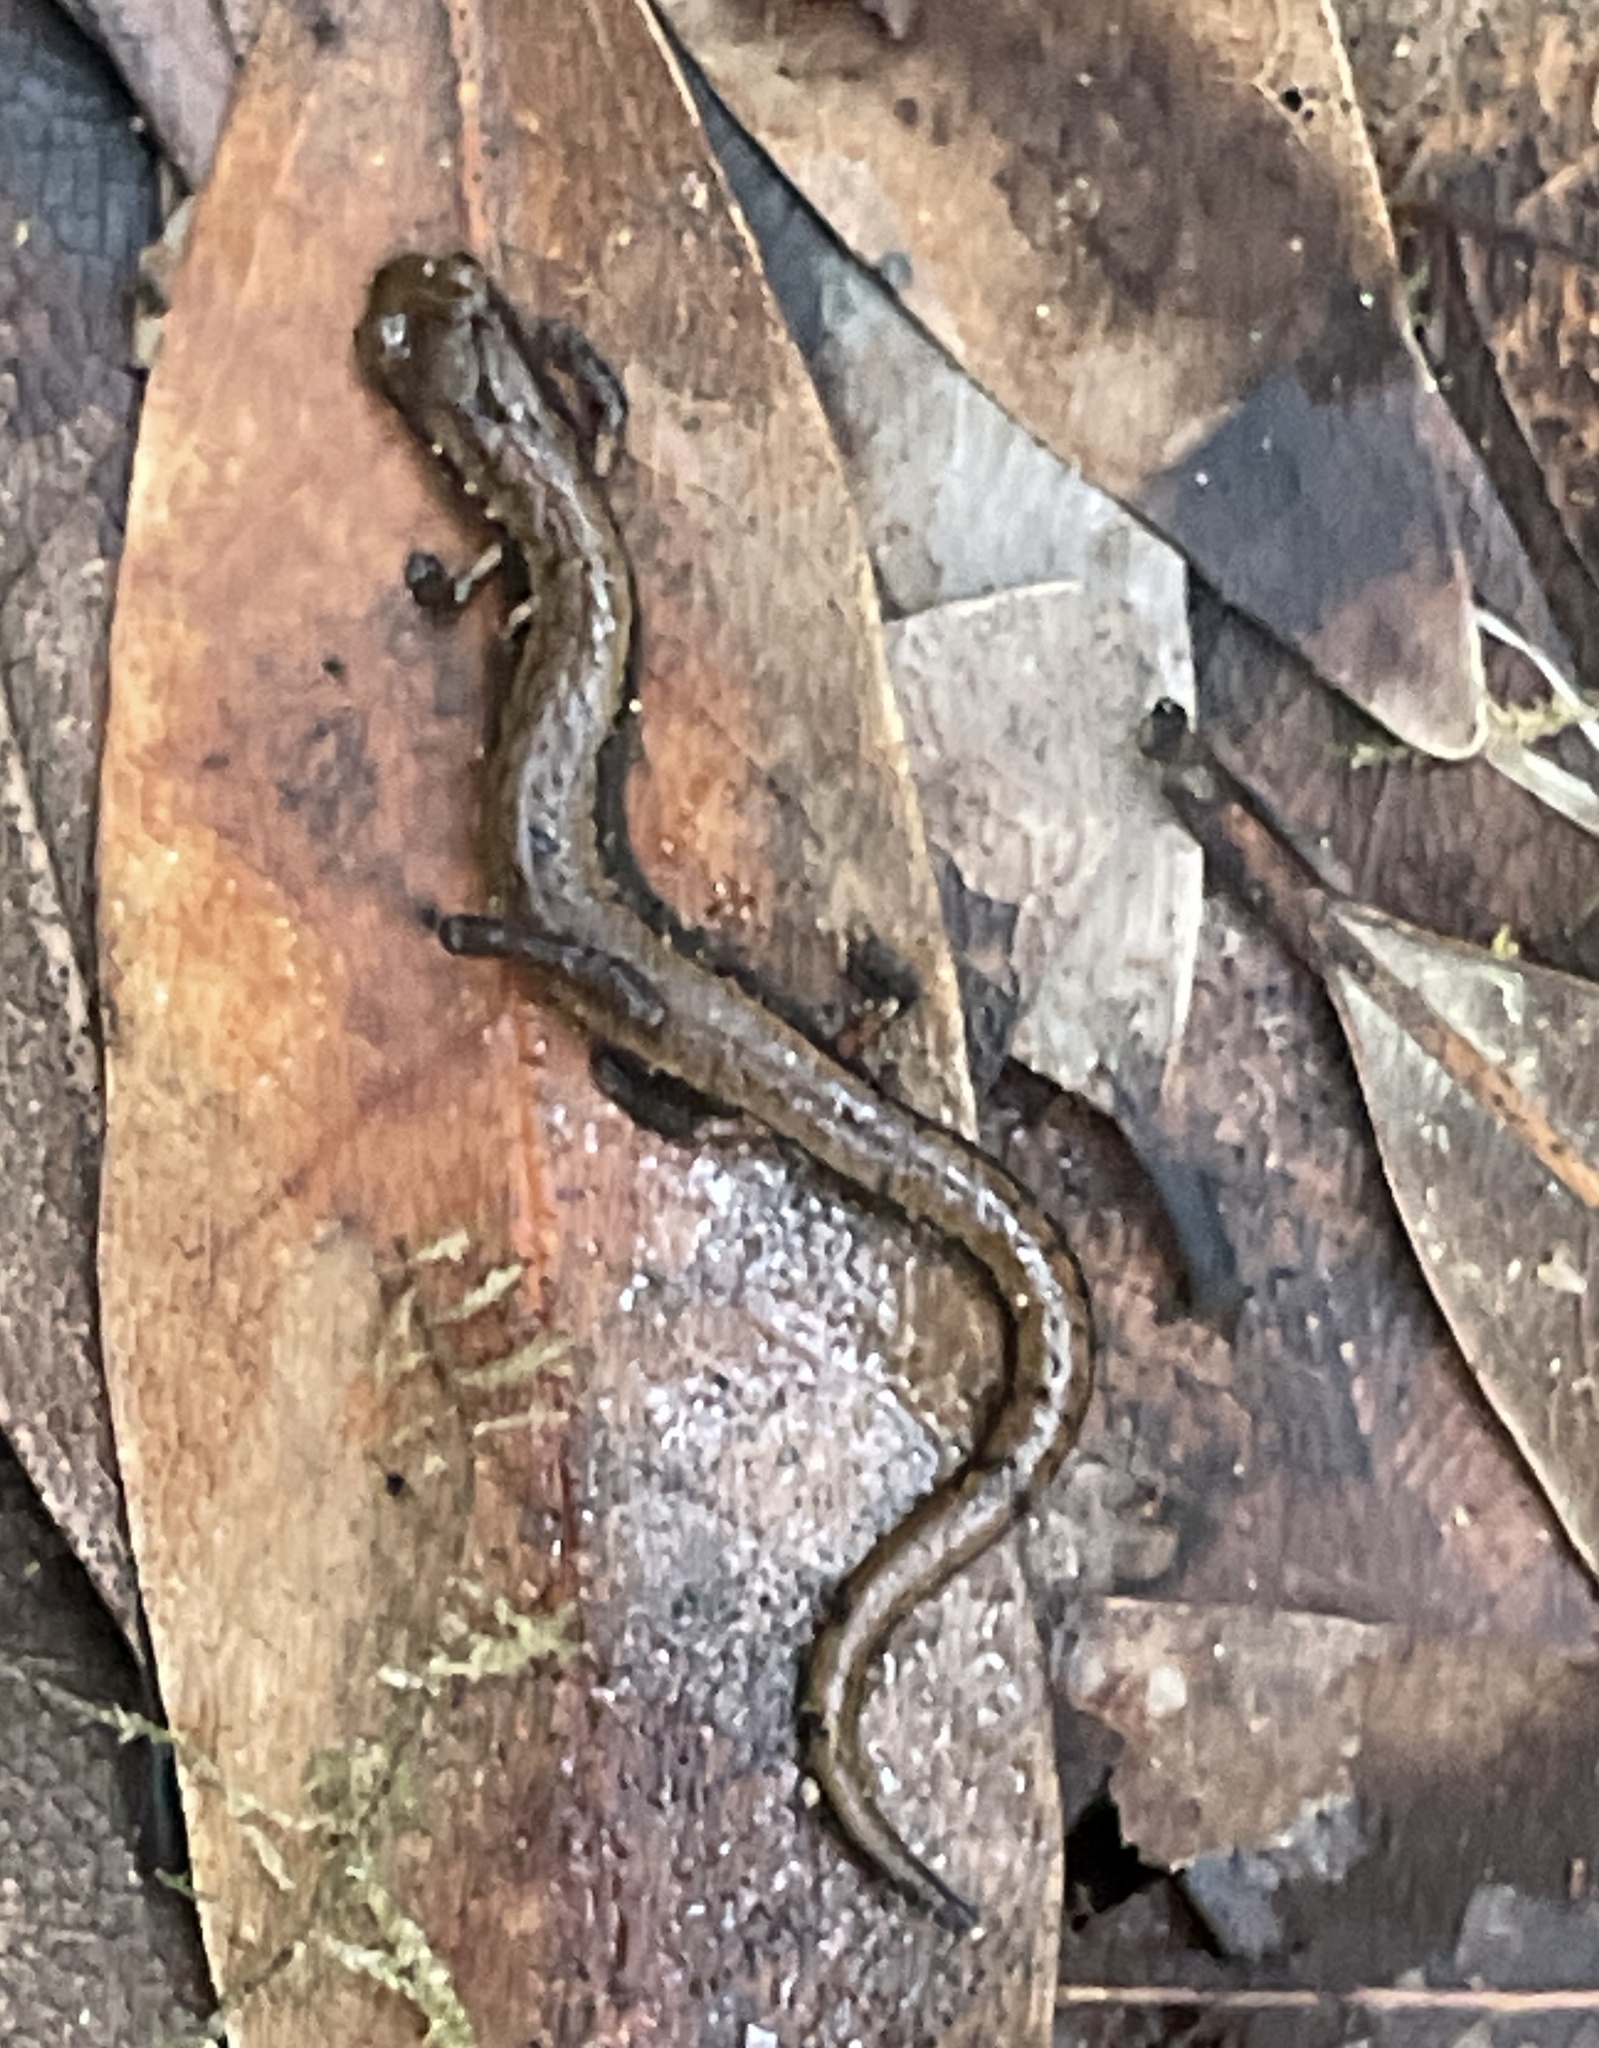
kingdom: Animalia
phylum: Chordata
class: Amphibia
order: Caudata
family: Plethodontidae
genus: Batrachoseps
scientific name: Batrachoseps attenuatus
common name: California slender salamander
